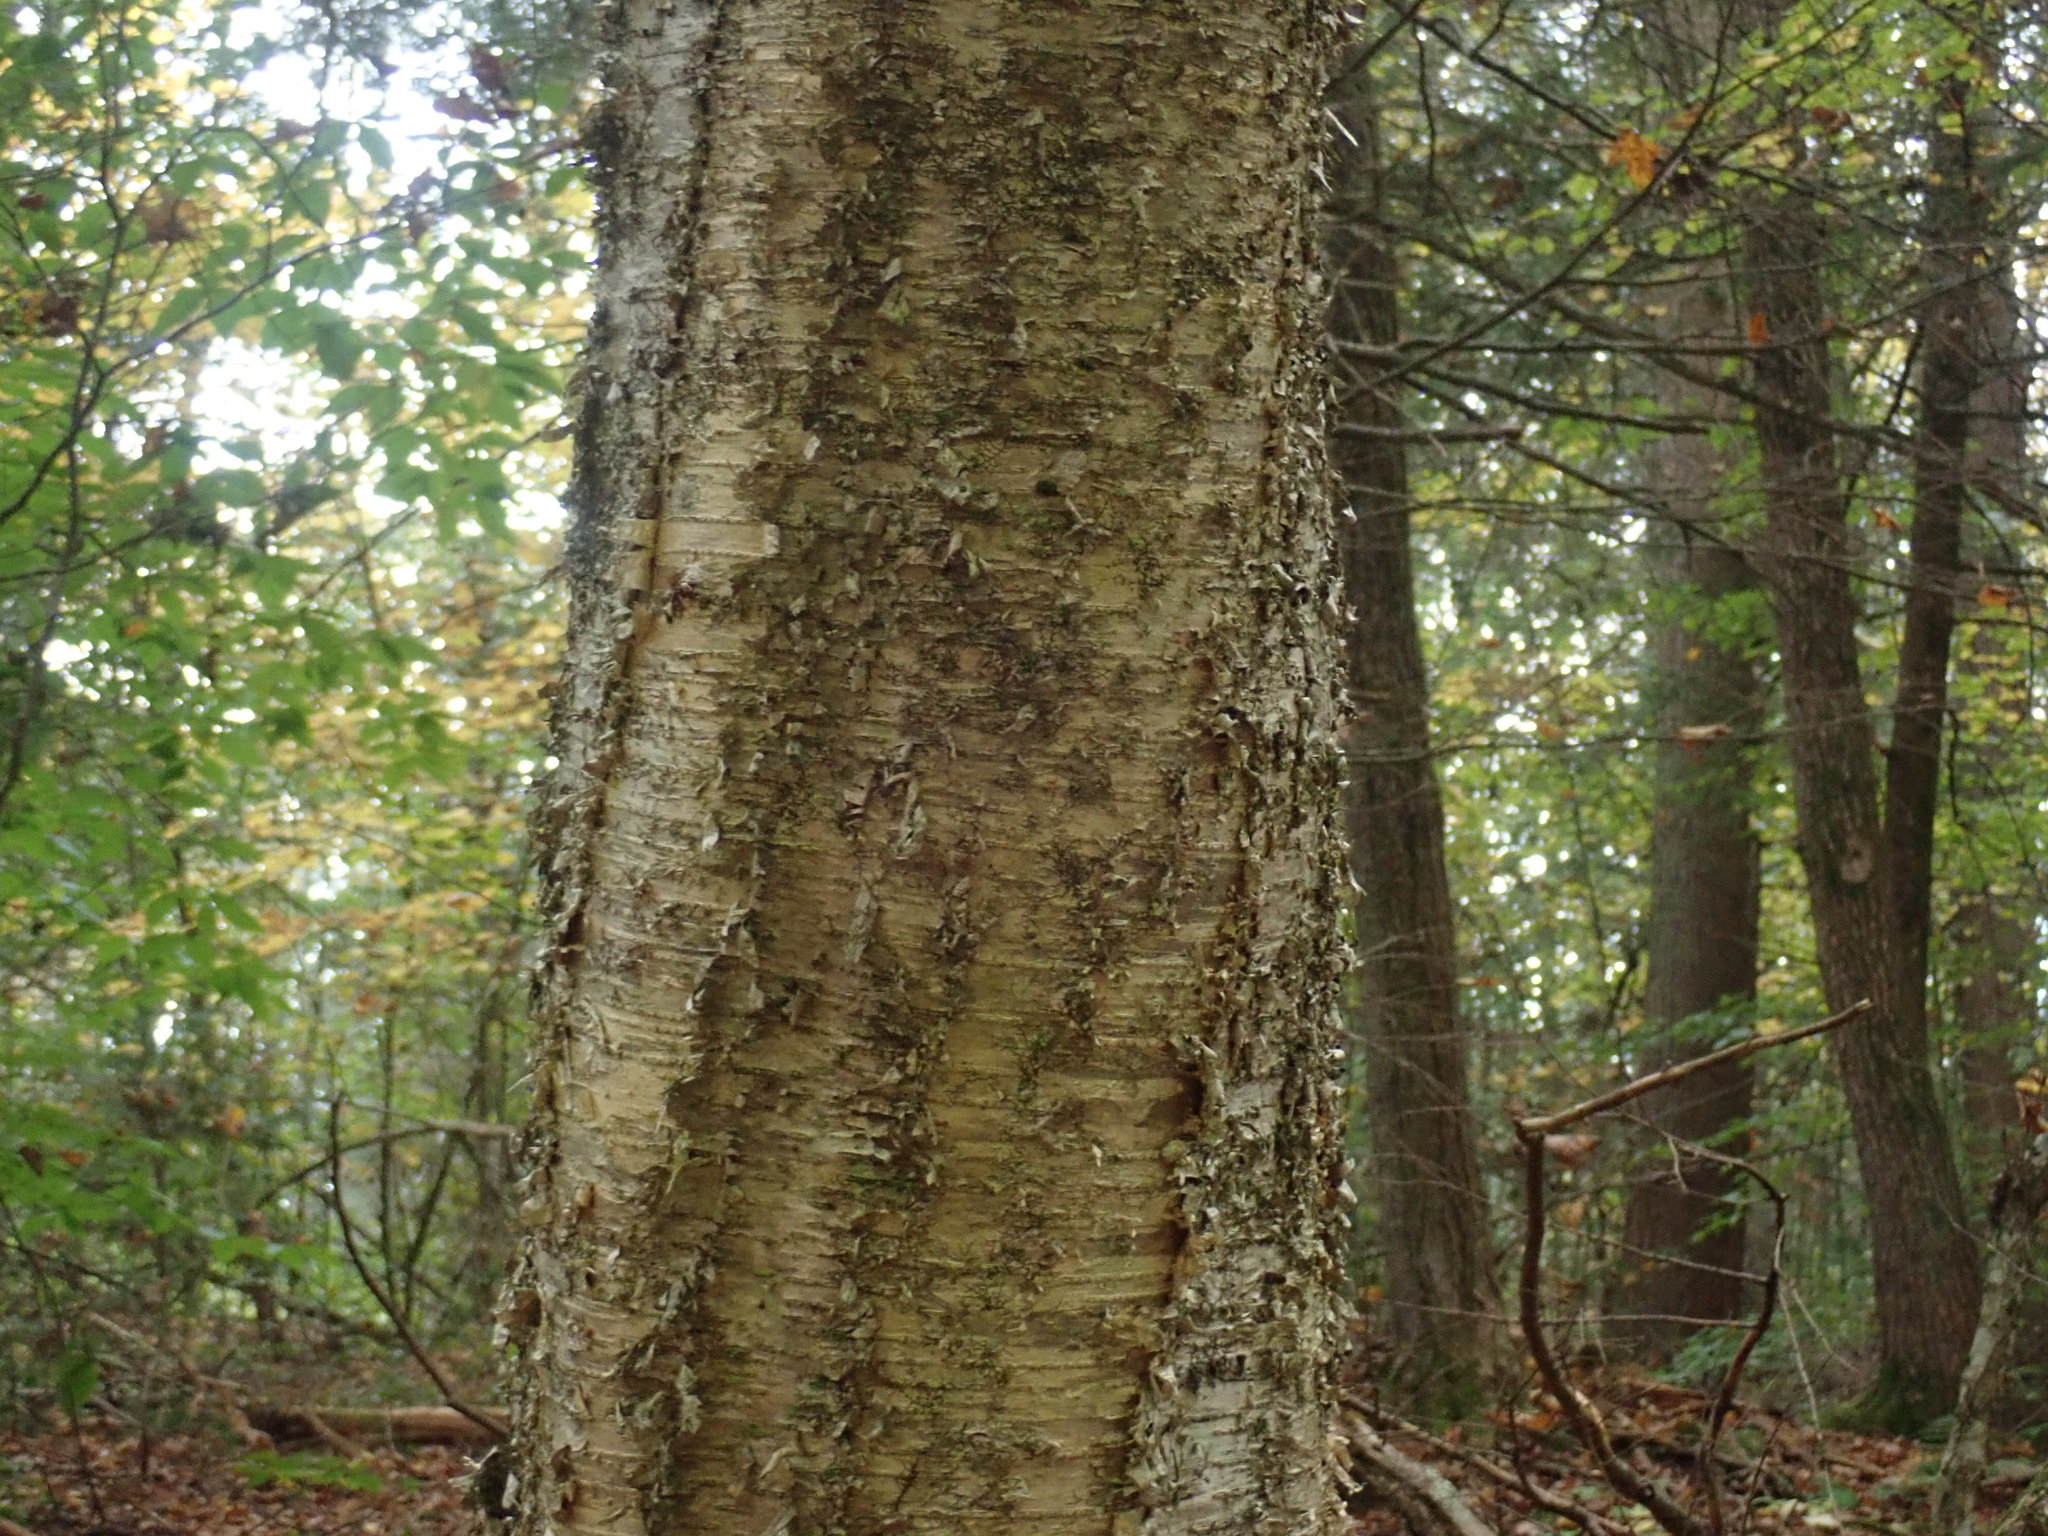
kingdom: Plantae
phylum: Tracheophyta
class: Magnoliopsida
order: Fagales
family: Betulaceae
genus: Betula
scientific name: Betula alleghaniensis
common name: Yellow birch
